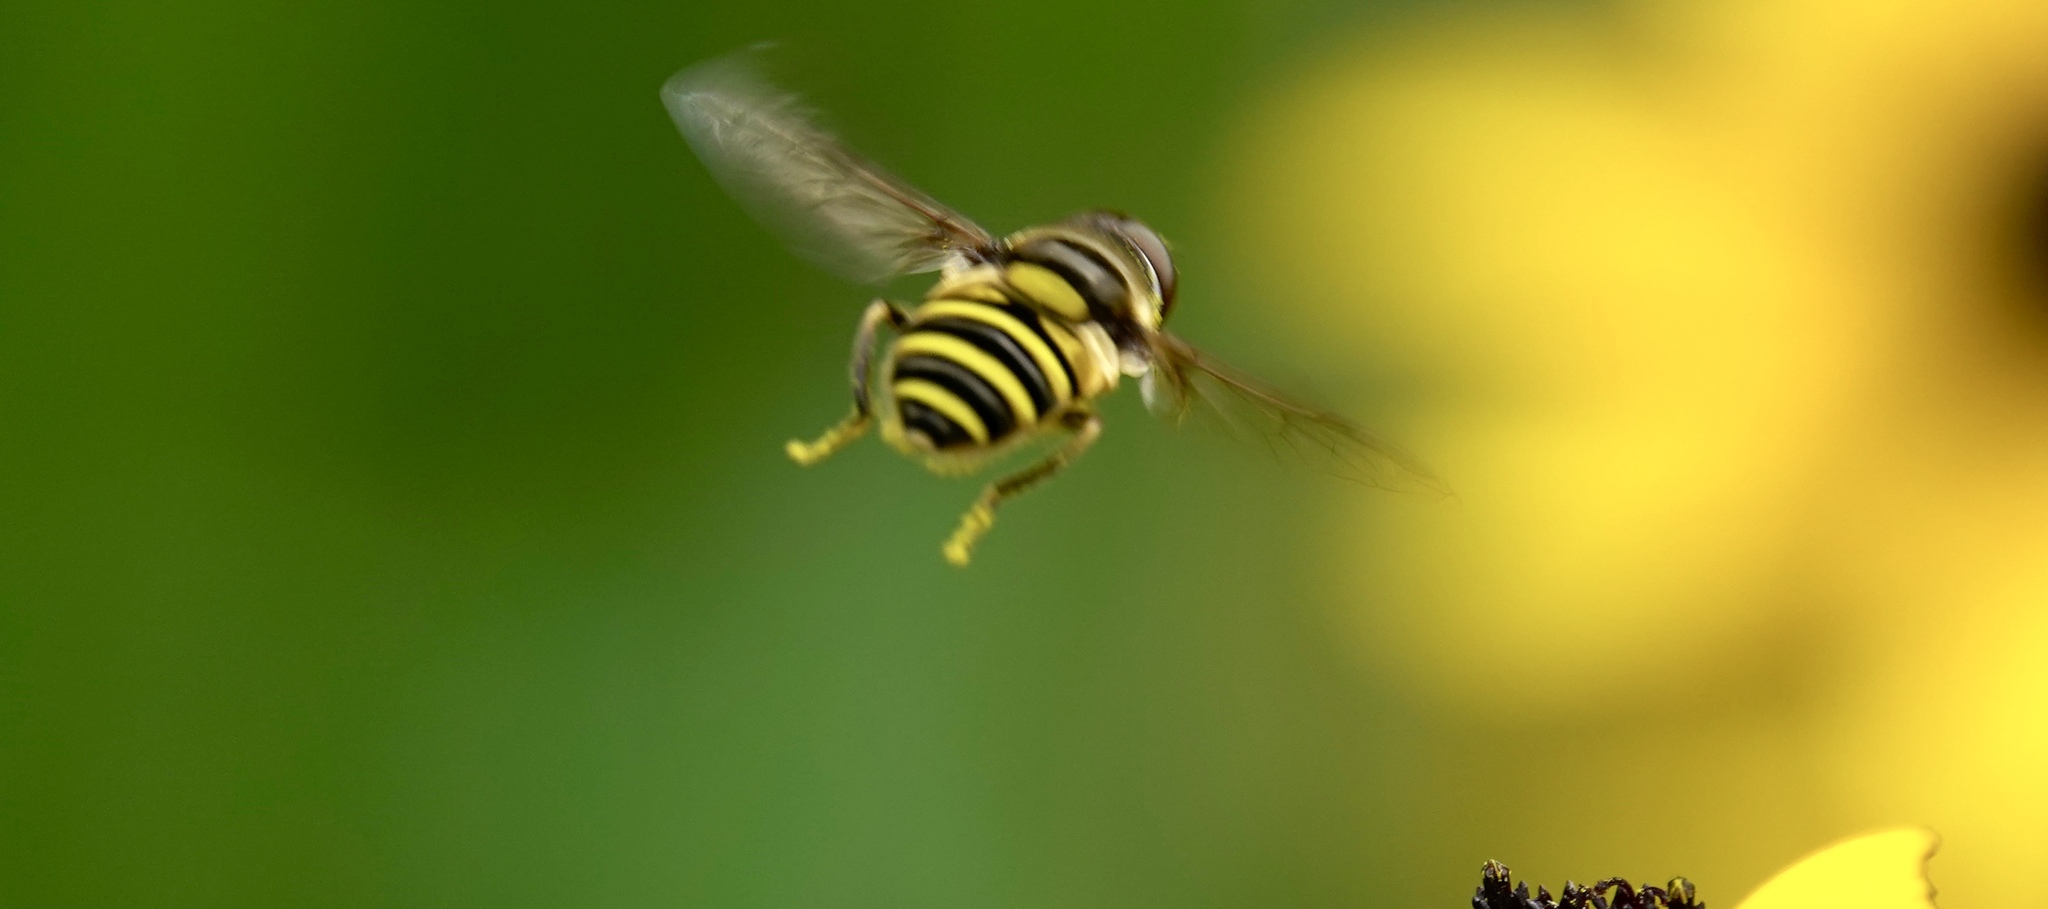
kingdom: Animalia
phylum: Arthropoda
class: Insecta
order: Diptera
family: Syrphidae
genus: Eristalis
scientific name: Eristalis transversa
